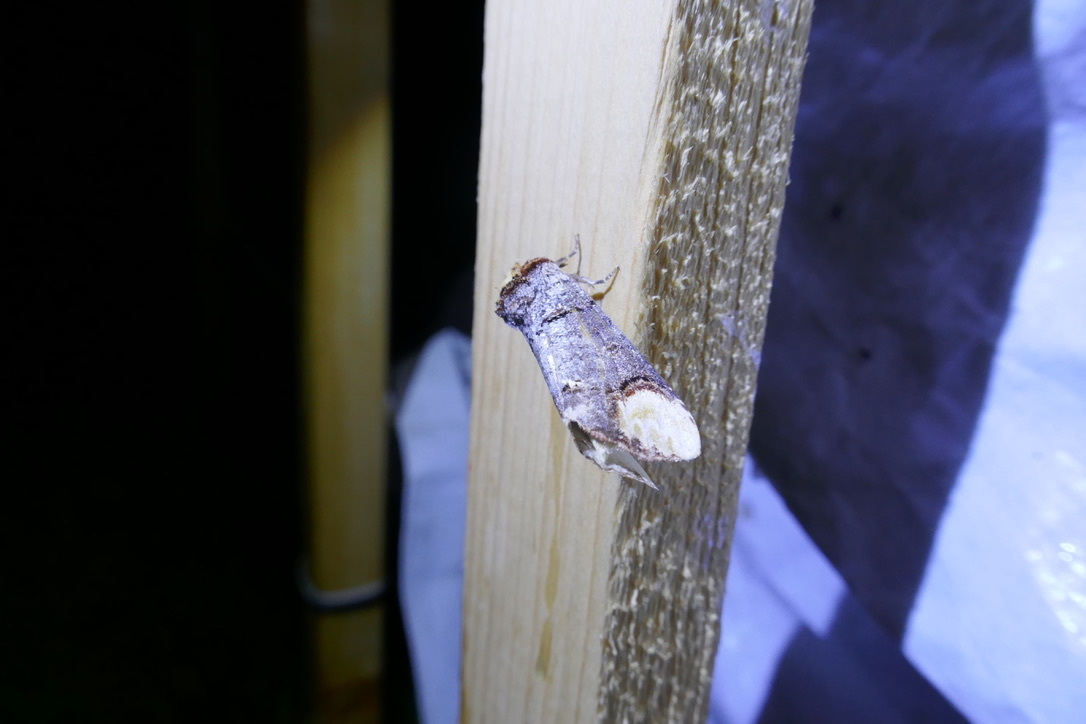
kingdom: Animalia
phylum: Arthropoda
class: Insecta
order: Lepidoptera
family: Notodontidae
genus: Phalera
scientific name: Phalera bucephala
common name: Buff-tip
